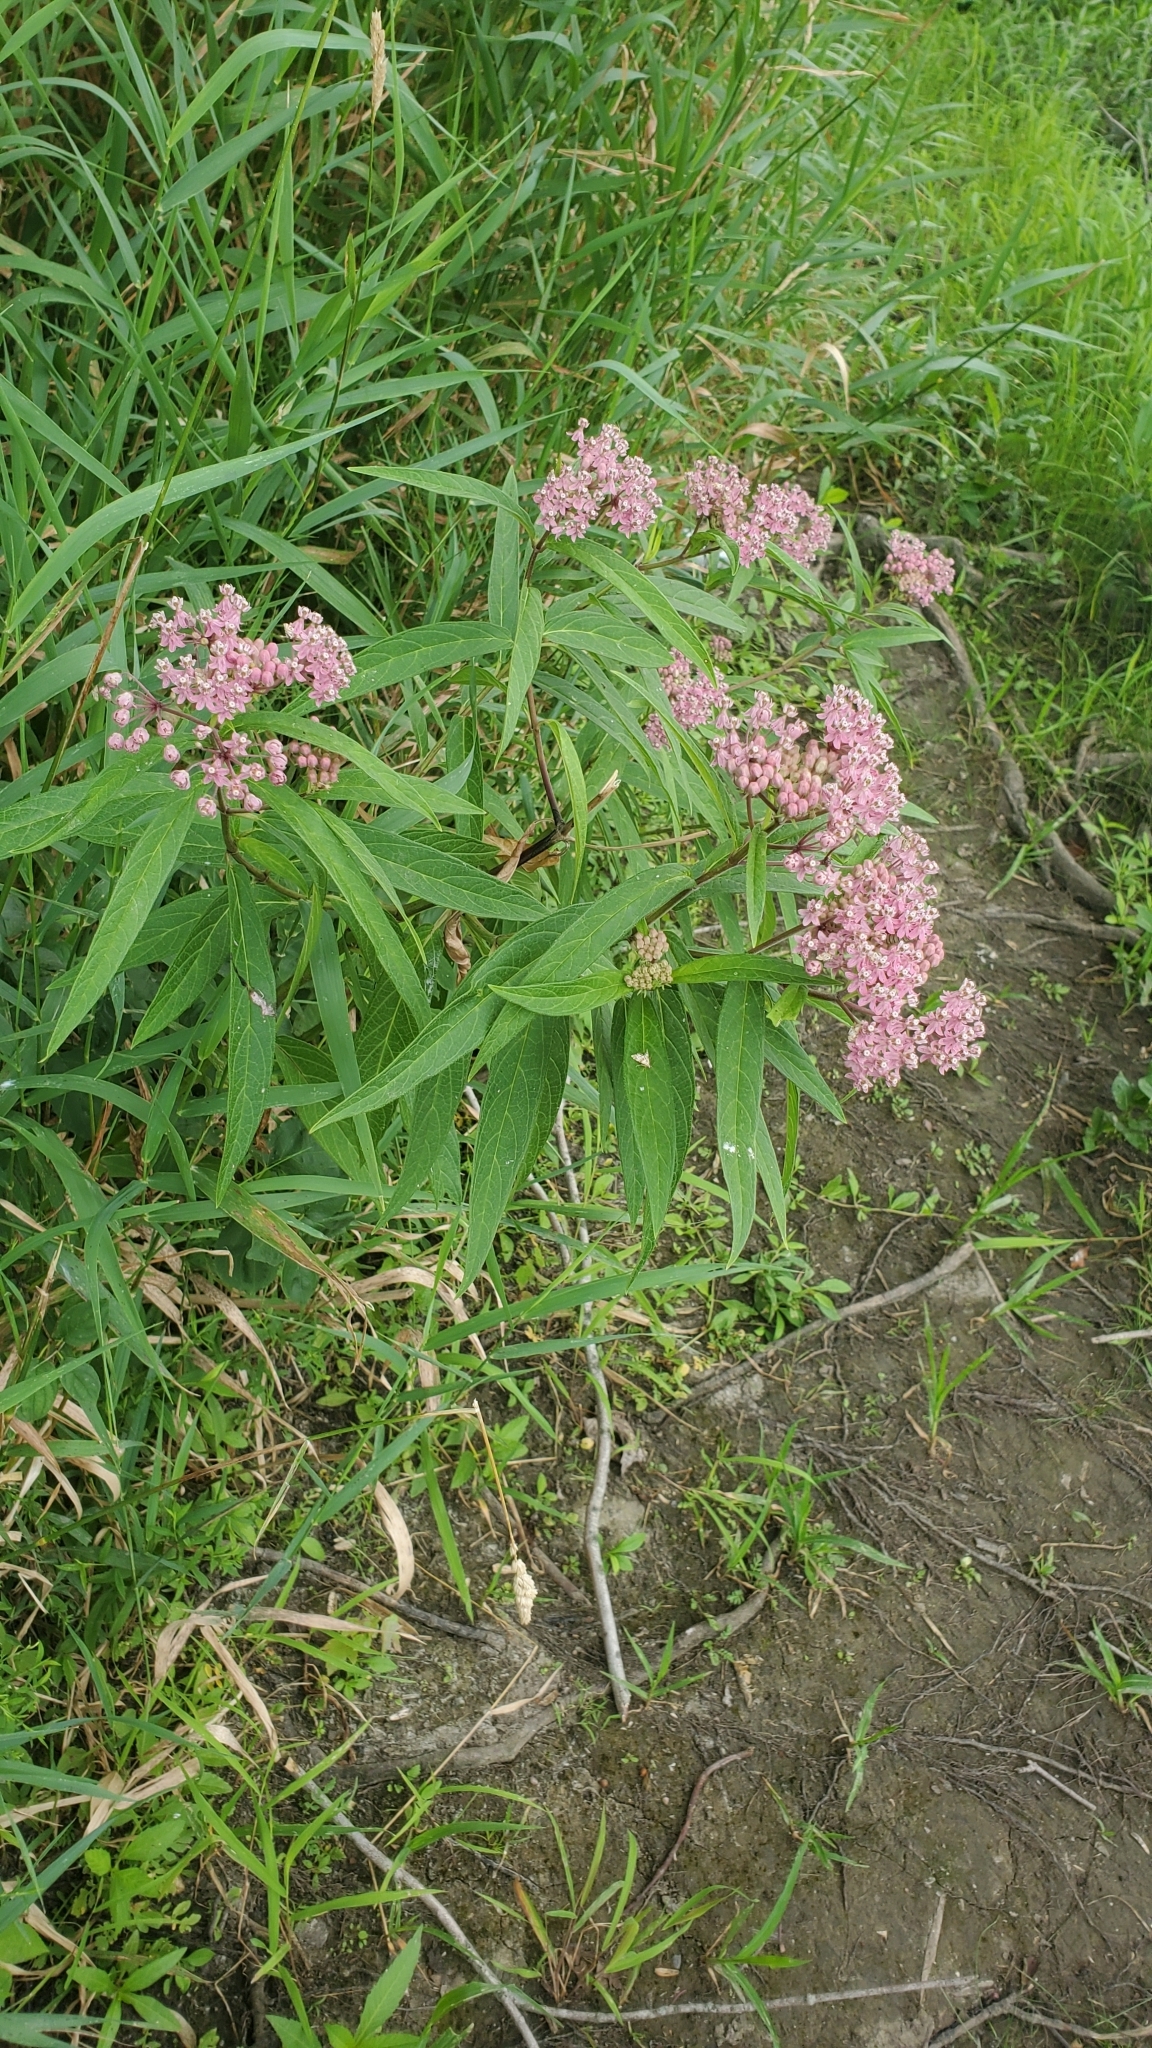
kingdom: Plantae
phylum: Tracheophyta
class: Magnoliopsida
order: Gentianales
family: Apocynaceae
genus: Asclepias
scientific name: Asclepias incarnata
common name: Swamp milkweed
